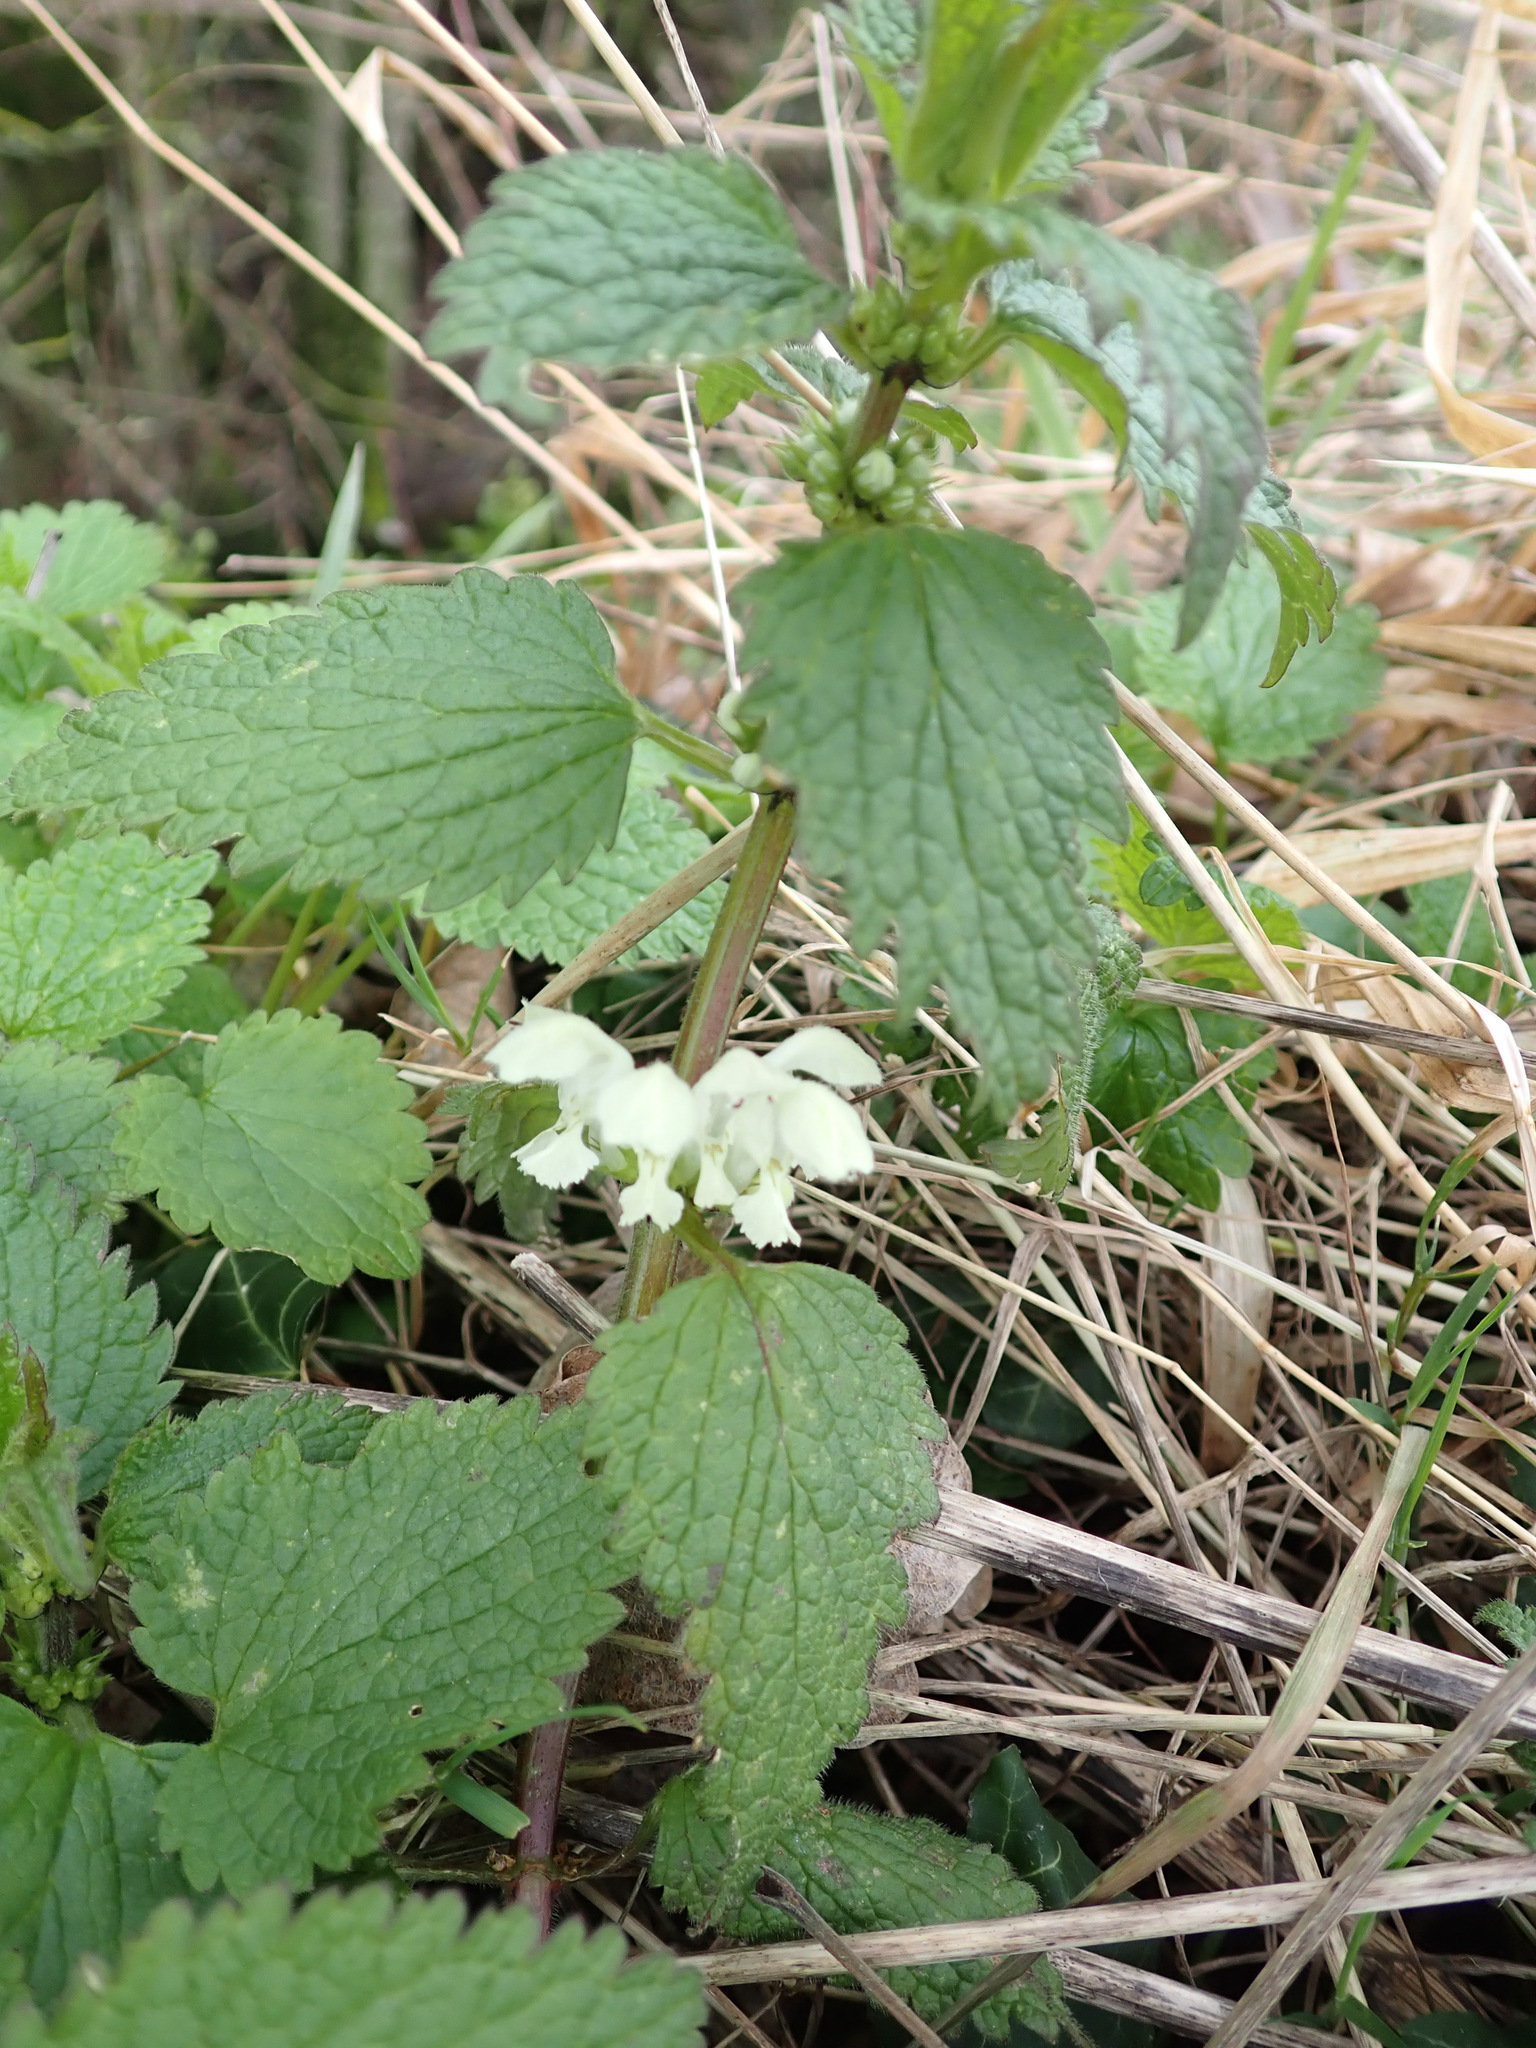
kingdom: Plantae
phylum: Tracheophyta
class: Magnoliopsida
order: Lamiales
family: Lamiaceae
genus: Lamium
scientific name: Lamium album
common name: White dead-nettle
